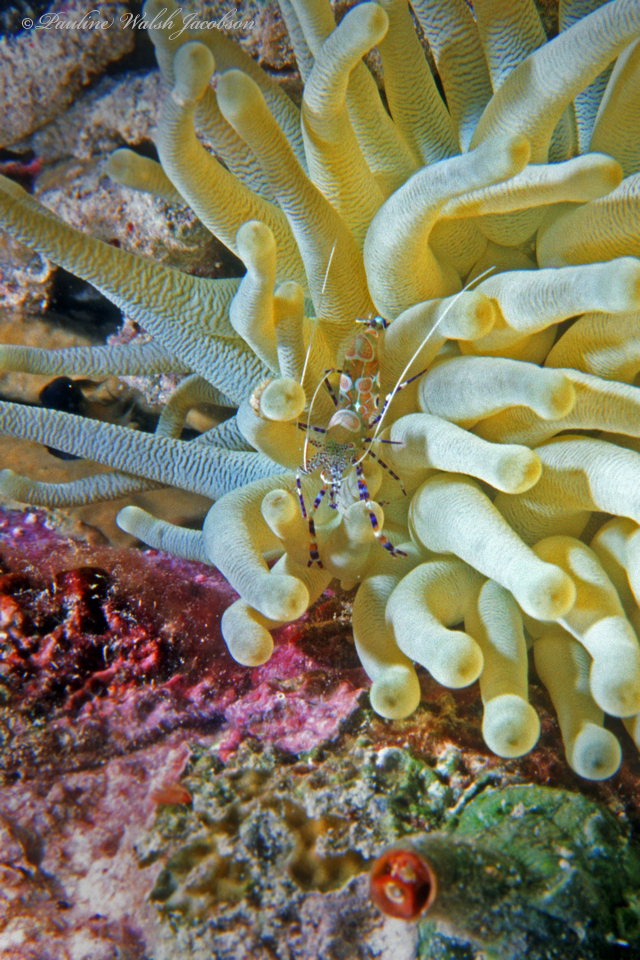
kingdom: Animalia
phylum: Arthropoda
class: Malacostraca
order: Decapoda
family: Palaemonidae
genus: Periclimenes
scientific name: Periclimenes yucatanicus
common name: Spotted cleaning shrimp
